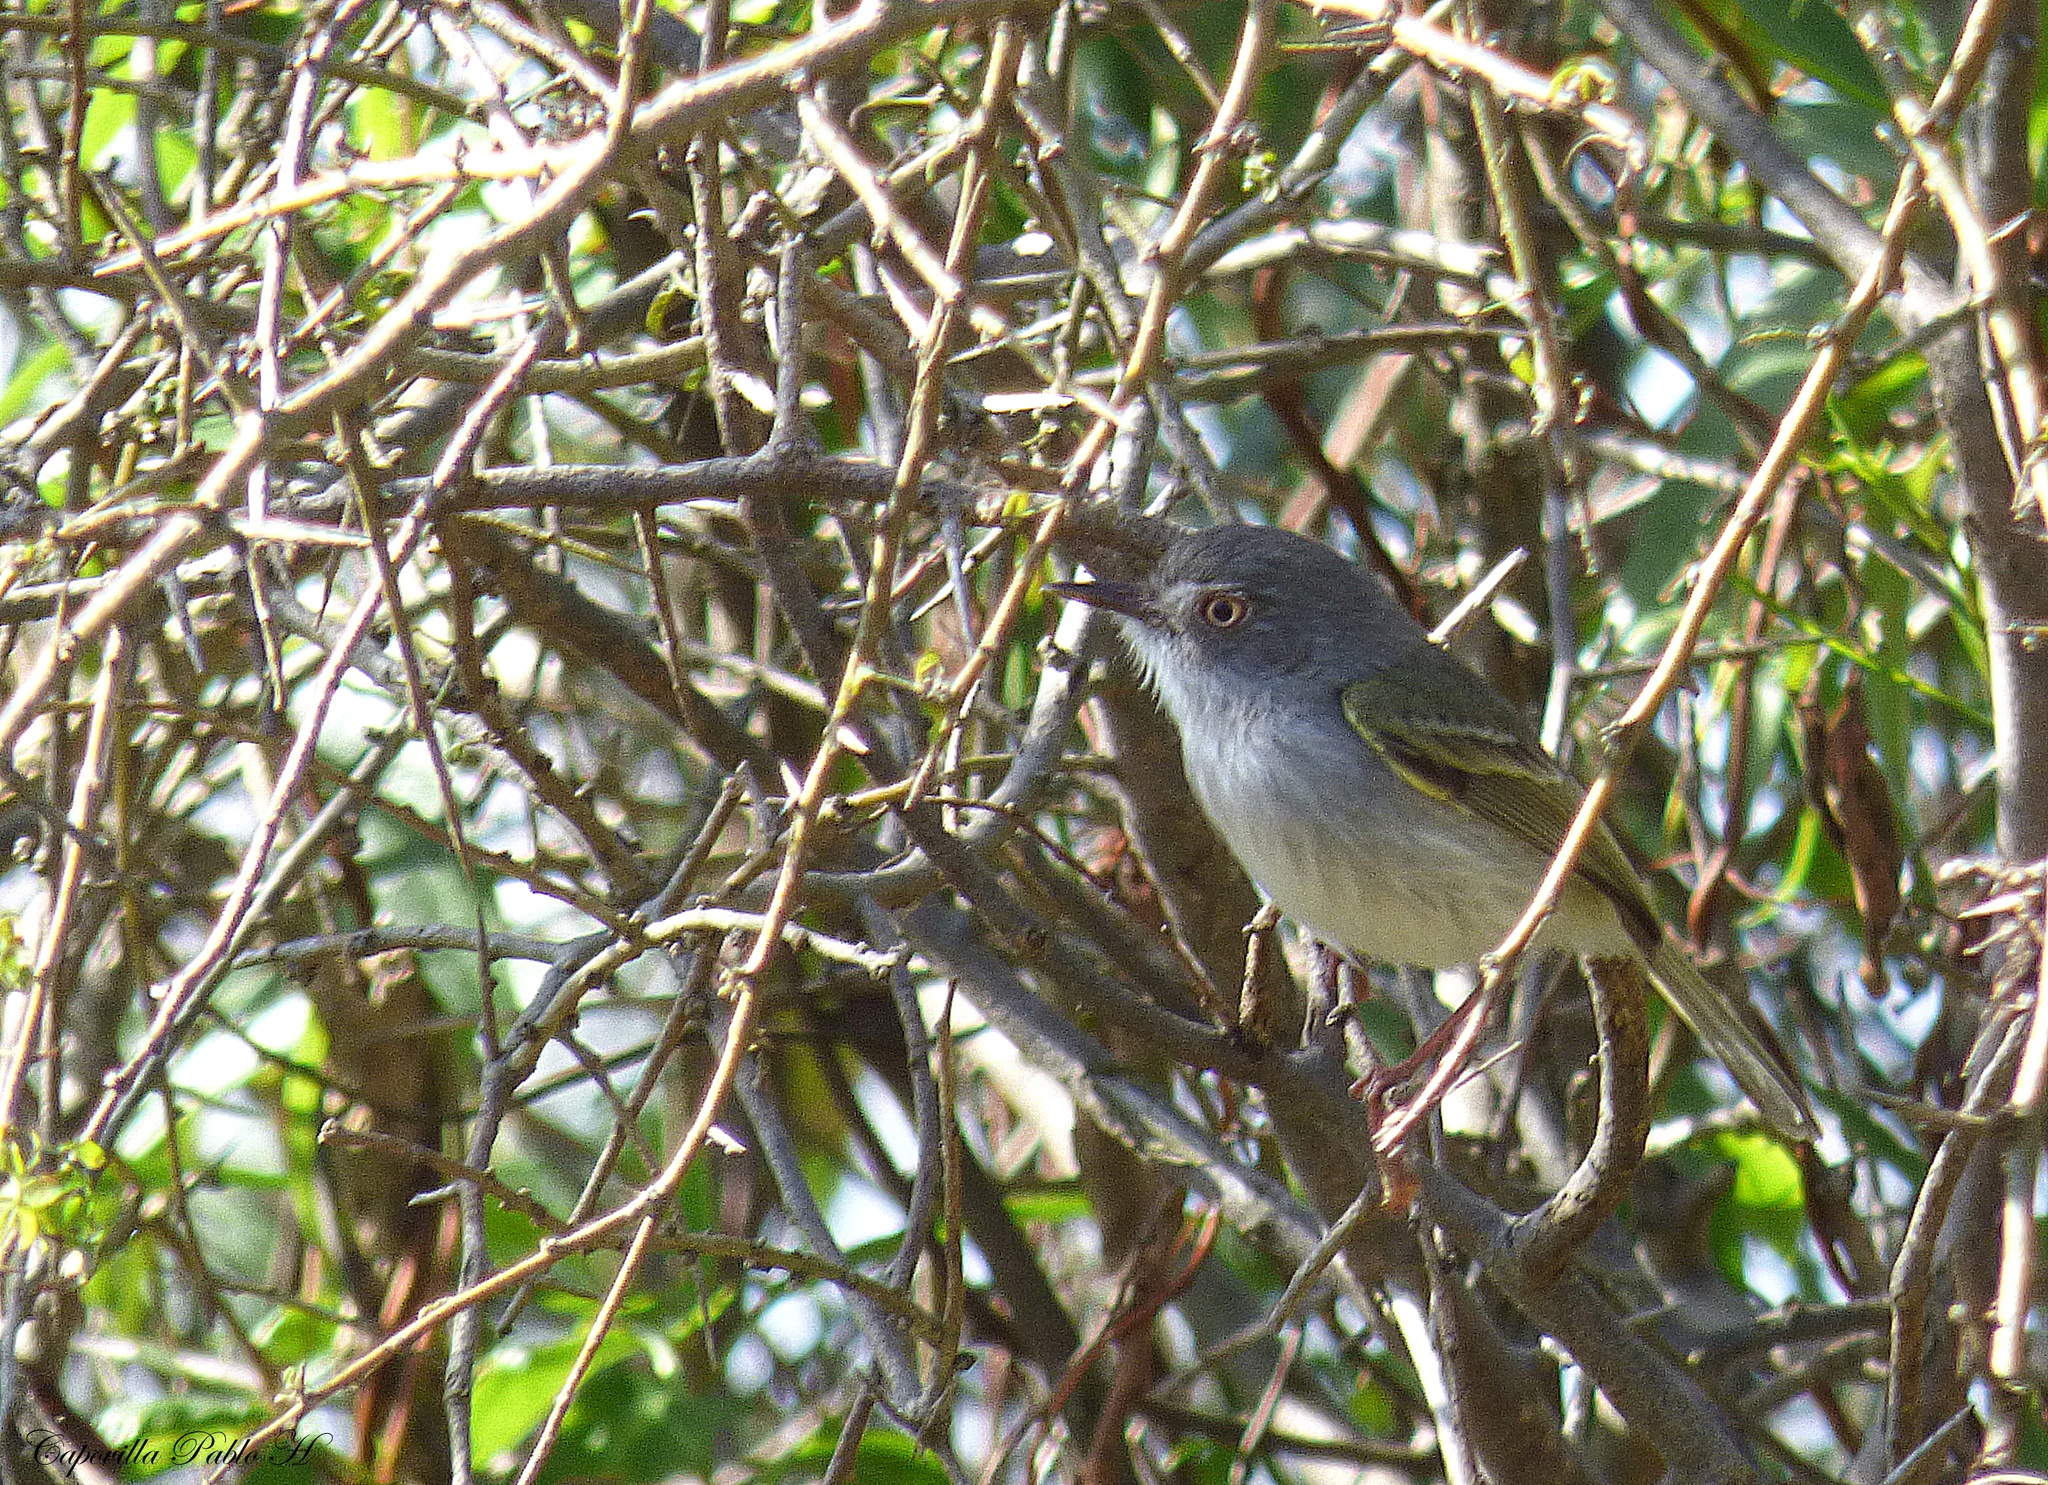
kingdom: Animalia
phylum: Chordata
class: Aves
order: Passeriformes
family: Tyrannidae
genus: Hemitriccus
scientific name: Hemitriccus margaritaceiventer
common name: Pearly-vented tody-tyrant
